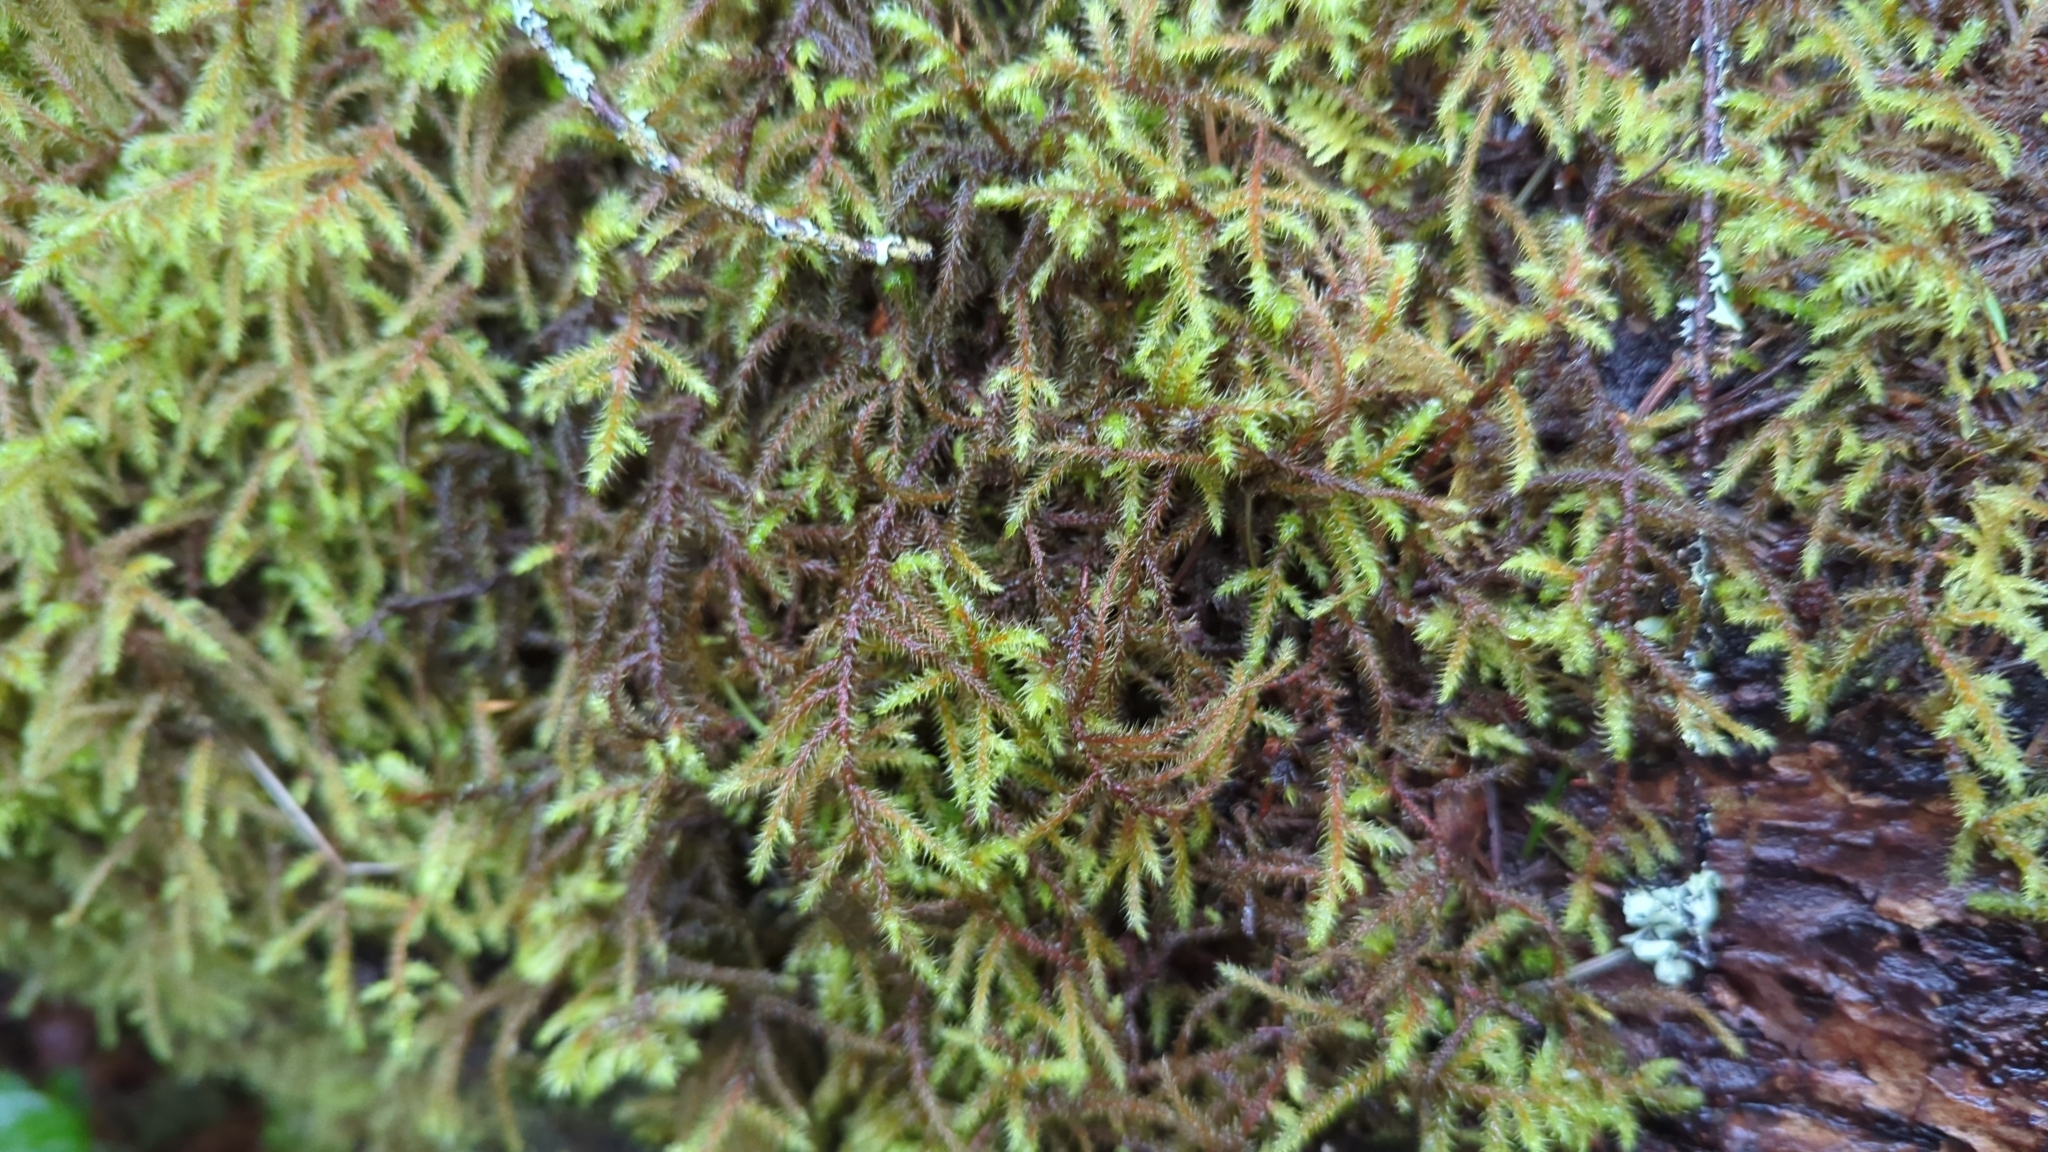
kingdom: Plantae
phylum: Bryophyta
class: Bryopsida
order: Hypnales
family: Hylocomiaceae
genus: Rhytidiadelphus
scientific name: Rhytidiadelphus loreus
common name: Lanky moss
